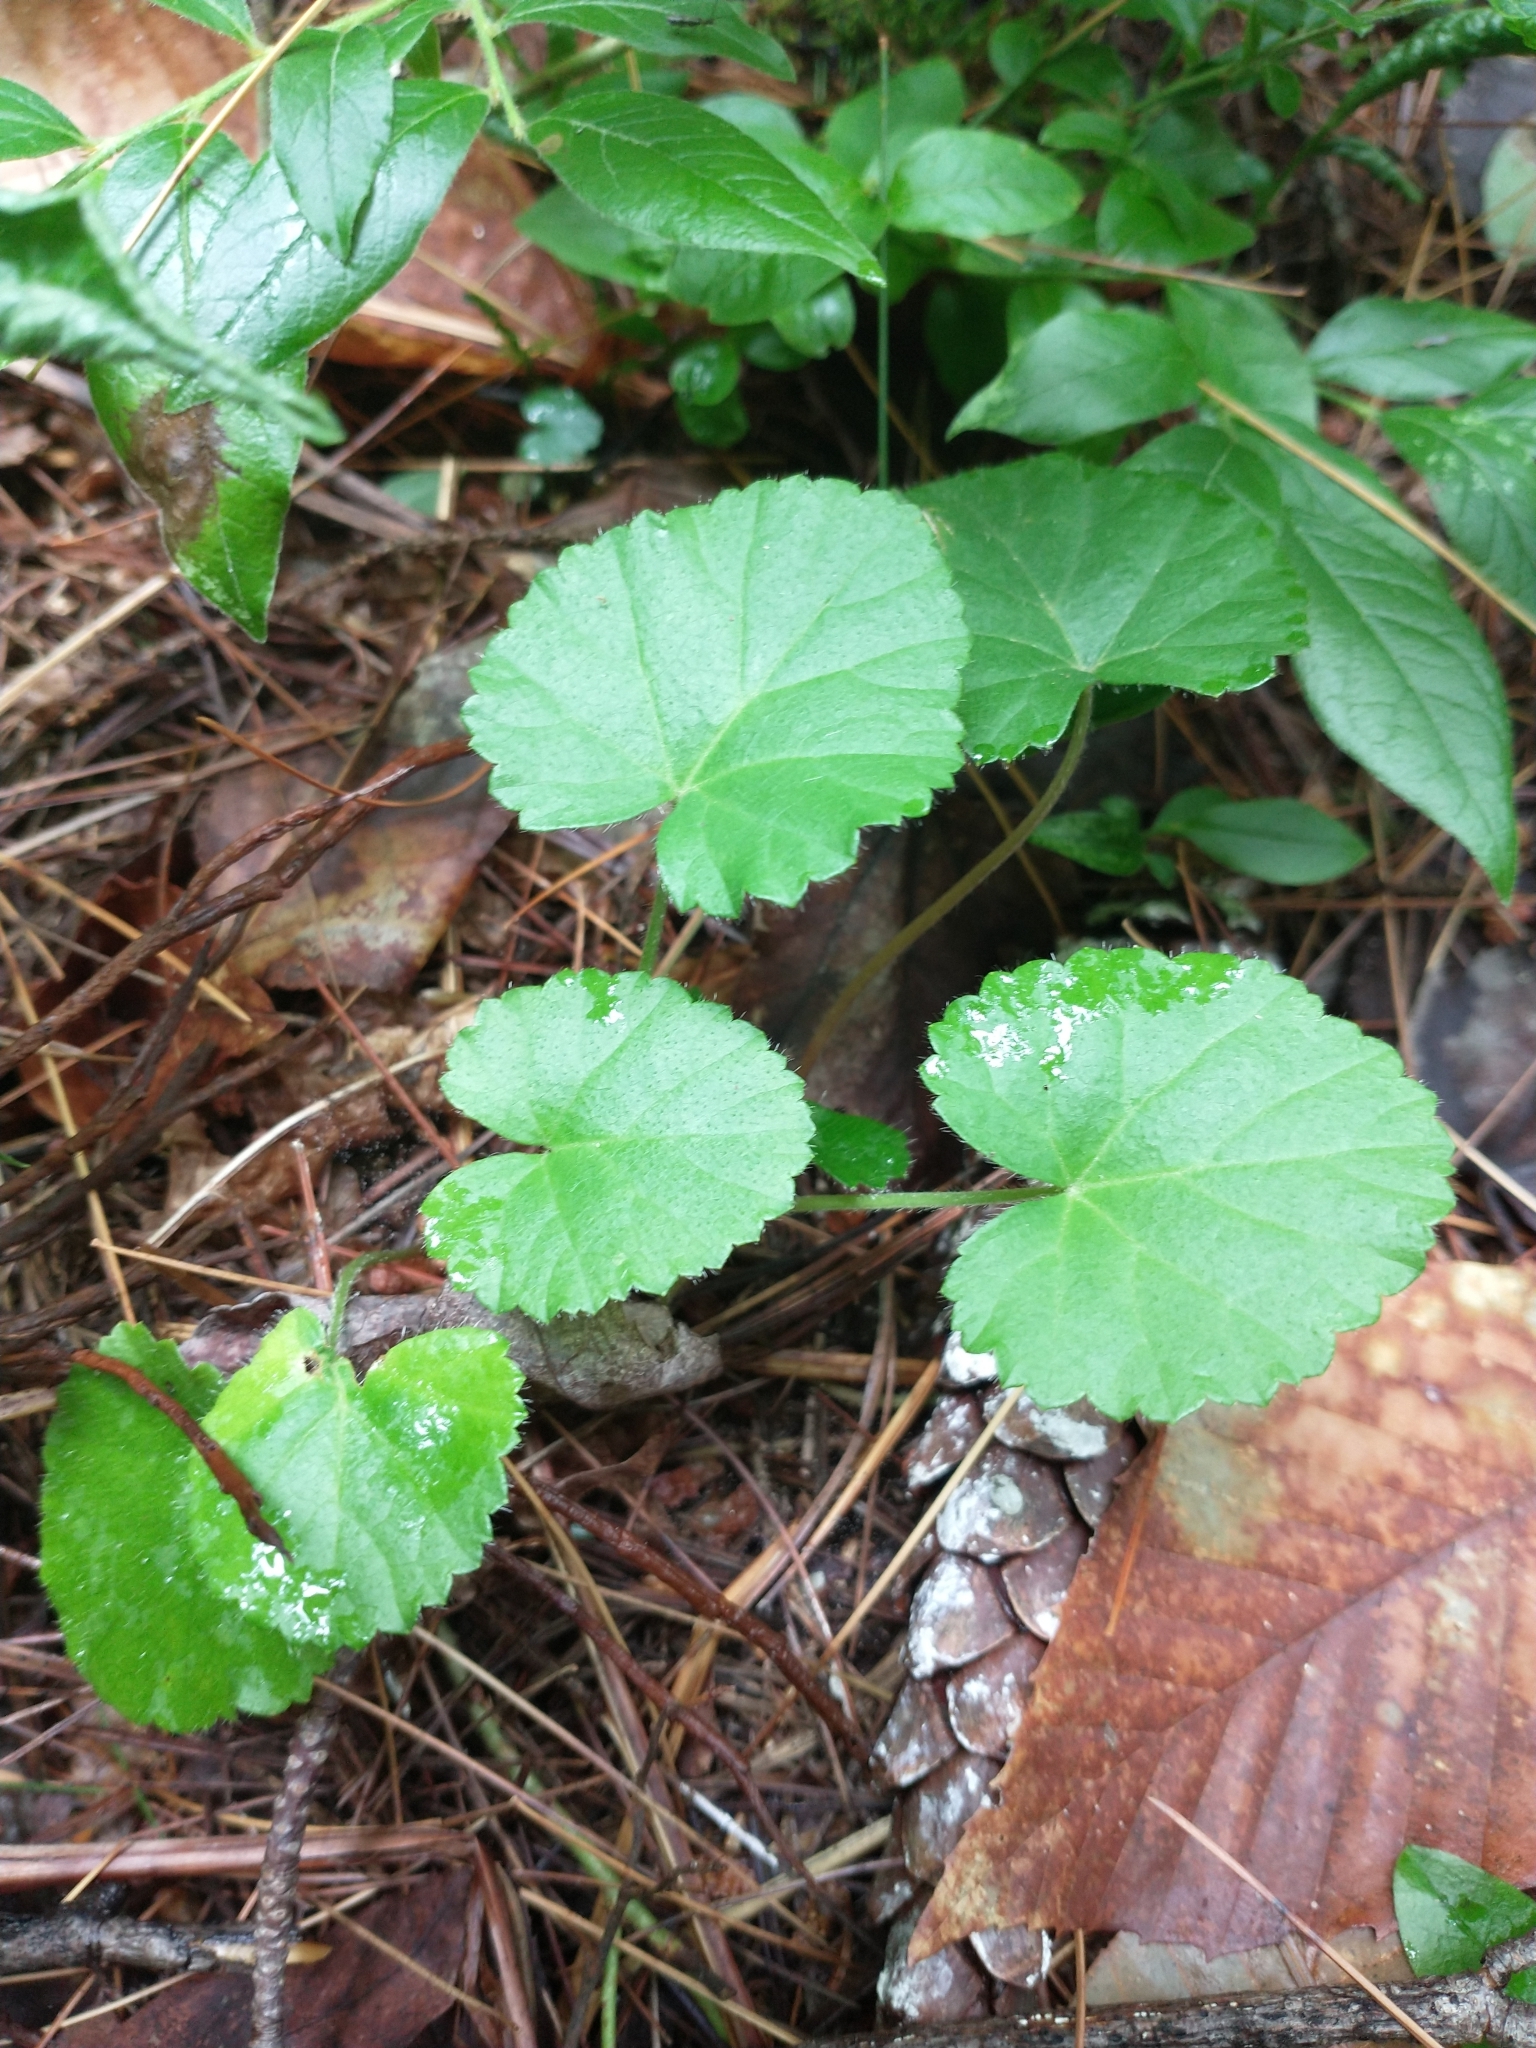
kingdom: Plantae
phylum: Tracheophyta
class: Magnoliopsida
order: Rosales
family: Rosaceae
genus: Dalibarda
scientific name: Dalibarda repens
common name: Dewdrop
